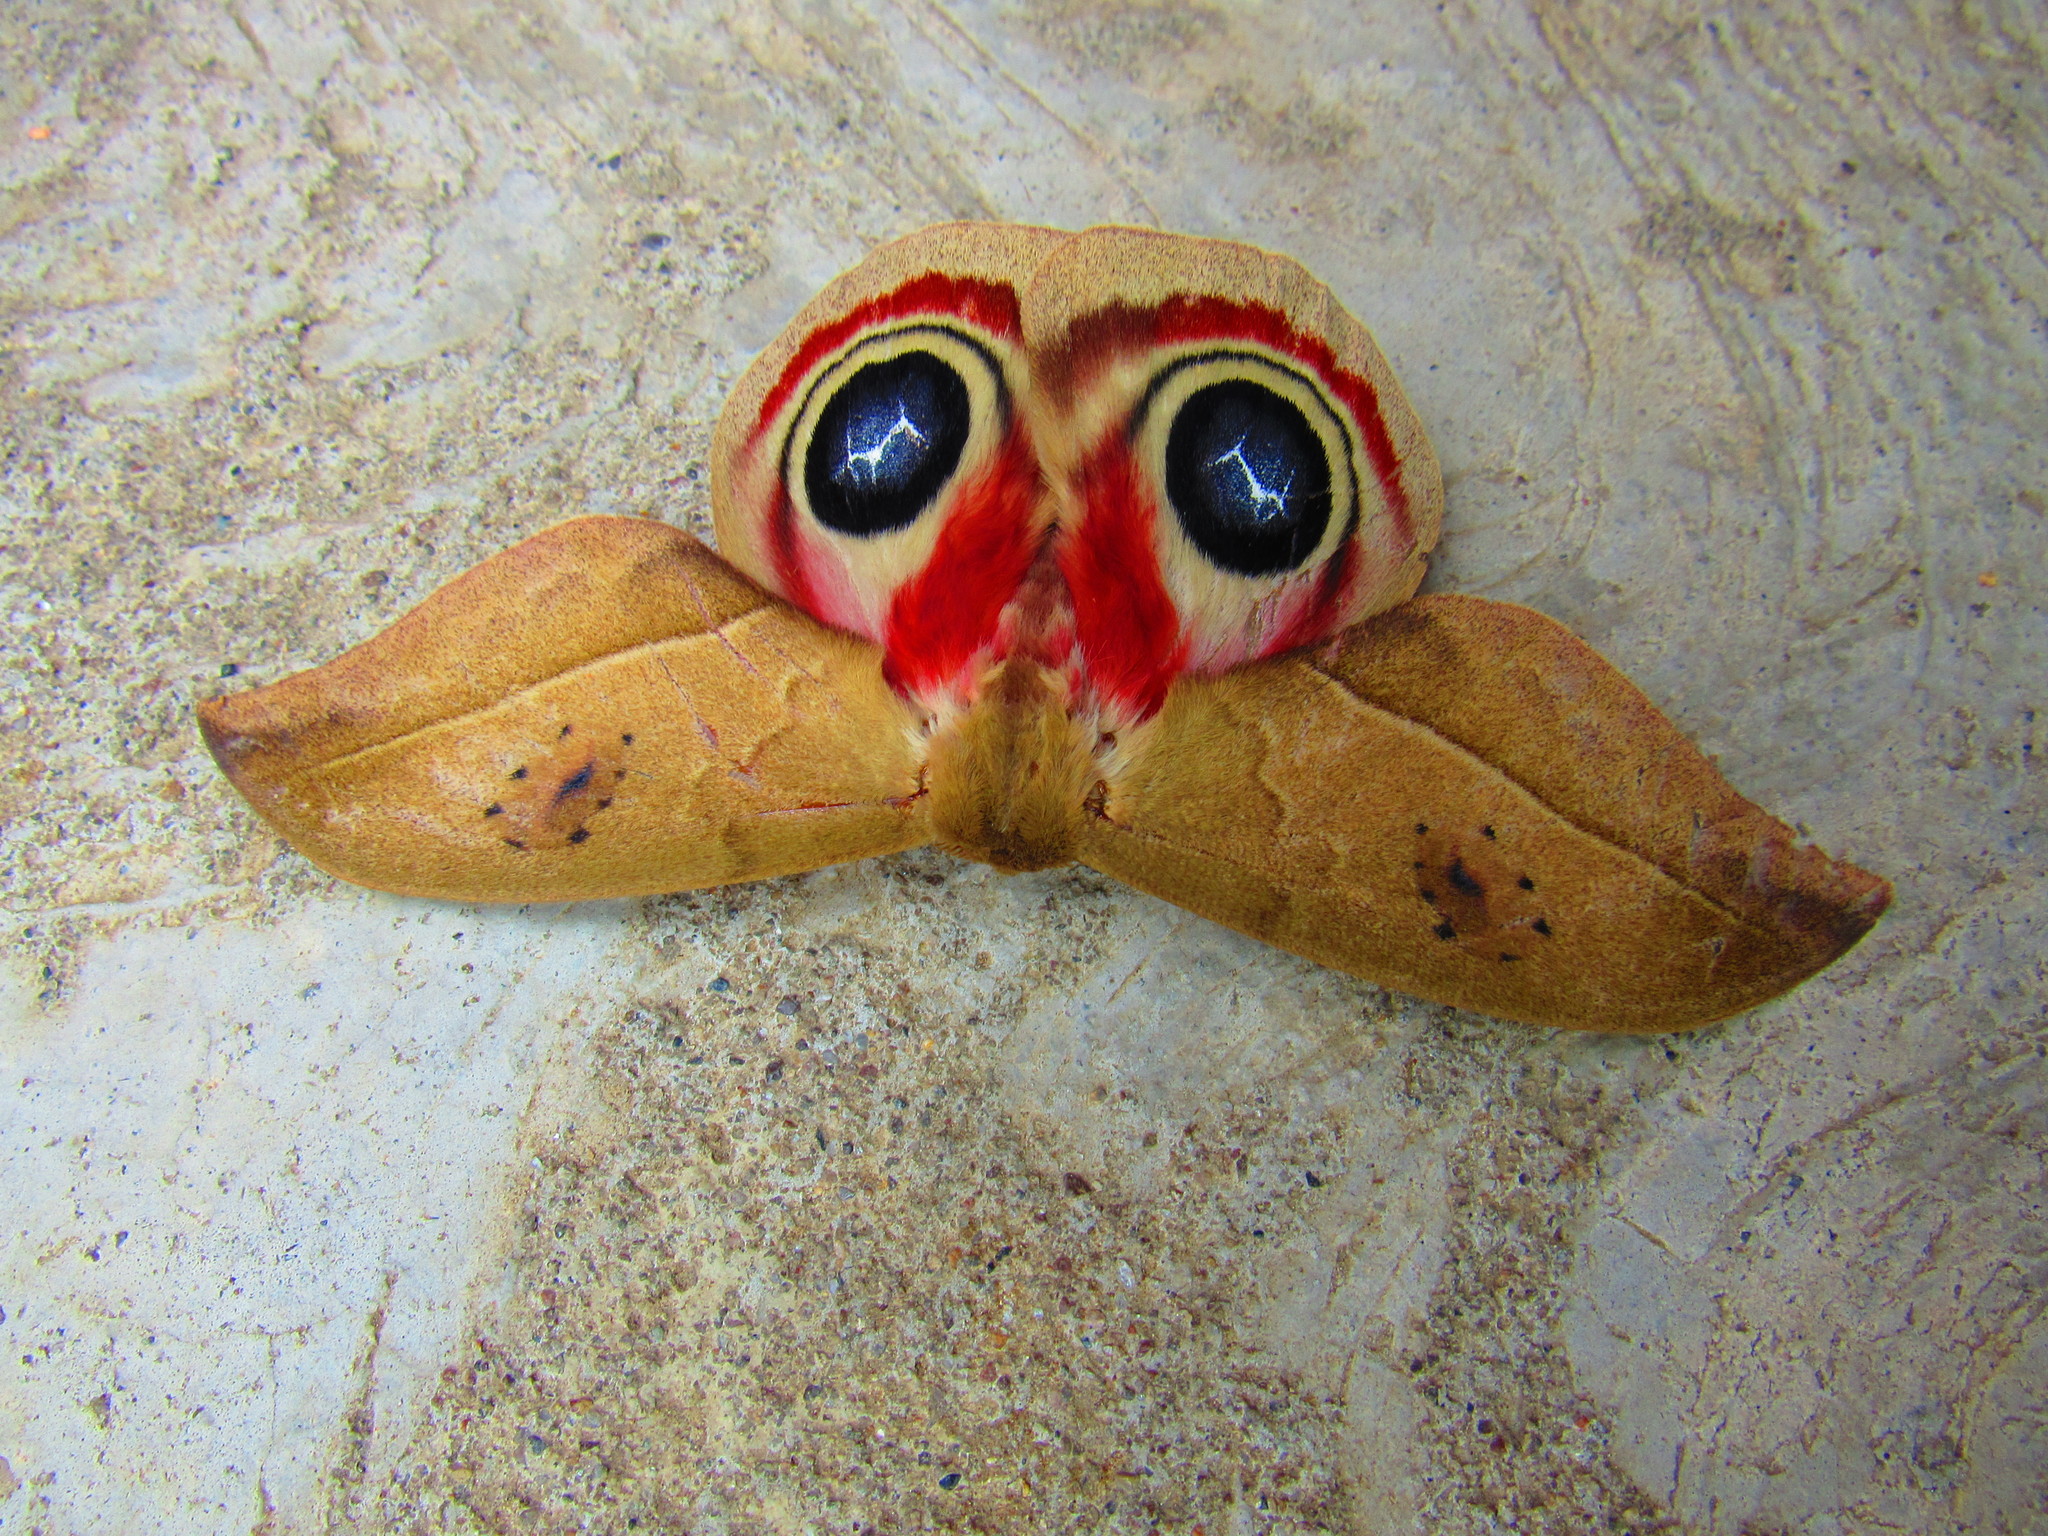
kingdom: Animalia
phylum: Arthropoda
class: Insecta
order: Lepidoptera
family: Saturniidae
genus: Automeris
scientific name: Automeris metzli
